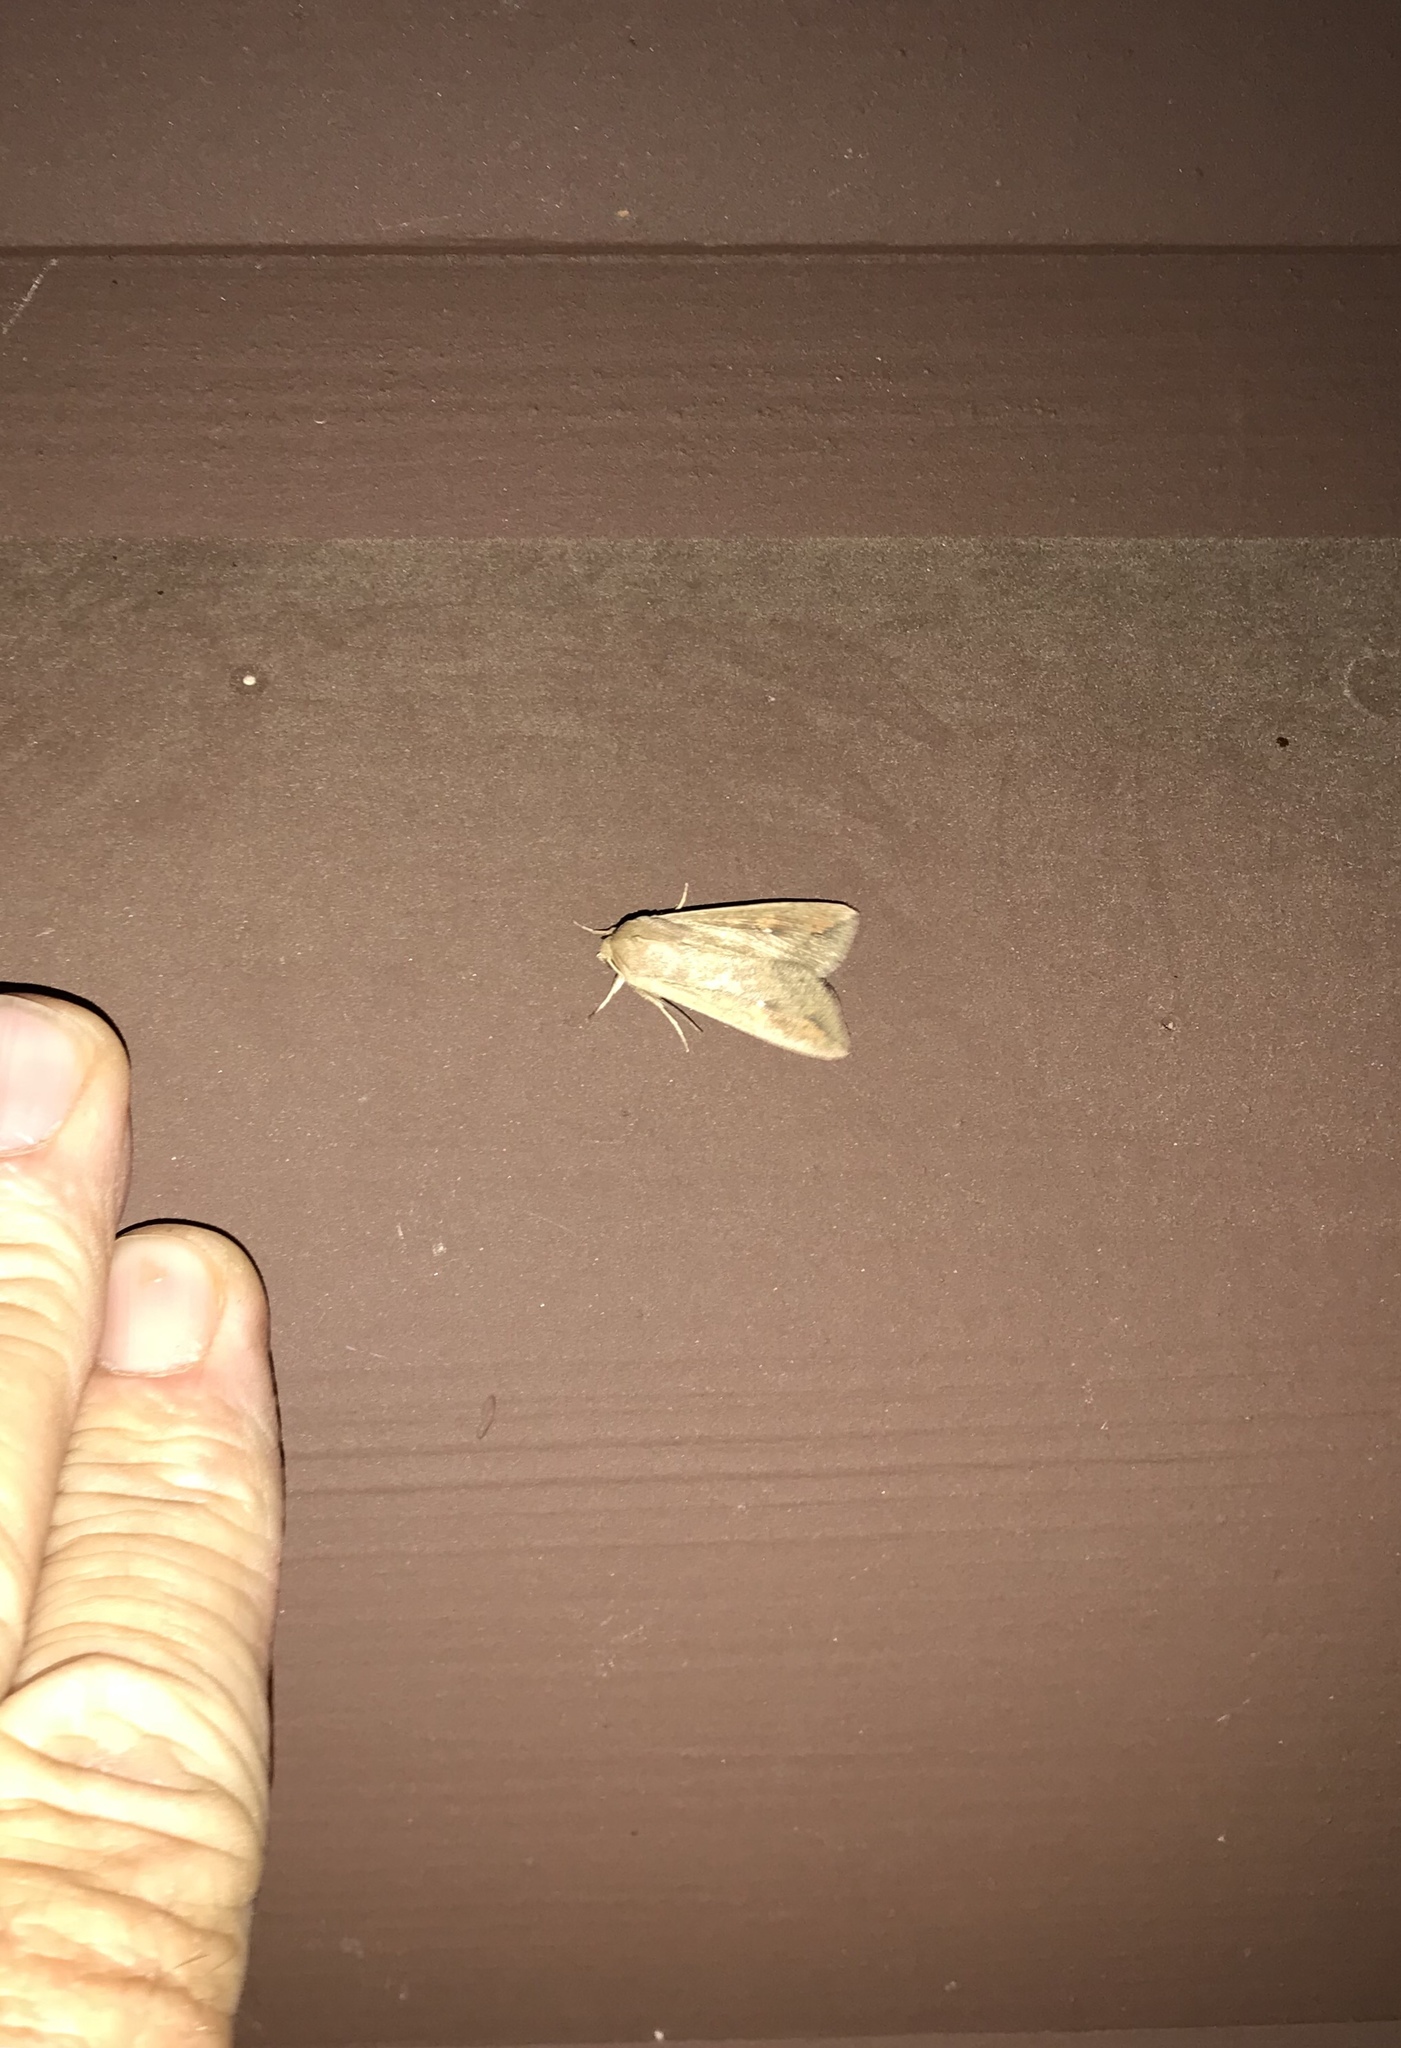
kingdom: Animalia
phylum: Arthropoda
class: Insecta
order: Lepidoptera
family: Noctuidae
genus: Mythimna
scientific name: Mythimna unipuncta
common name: White-speck
